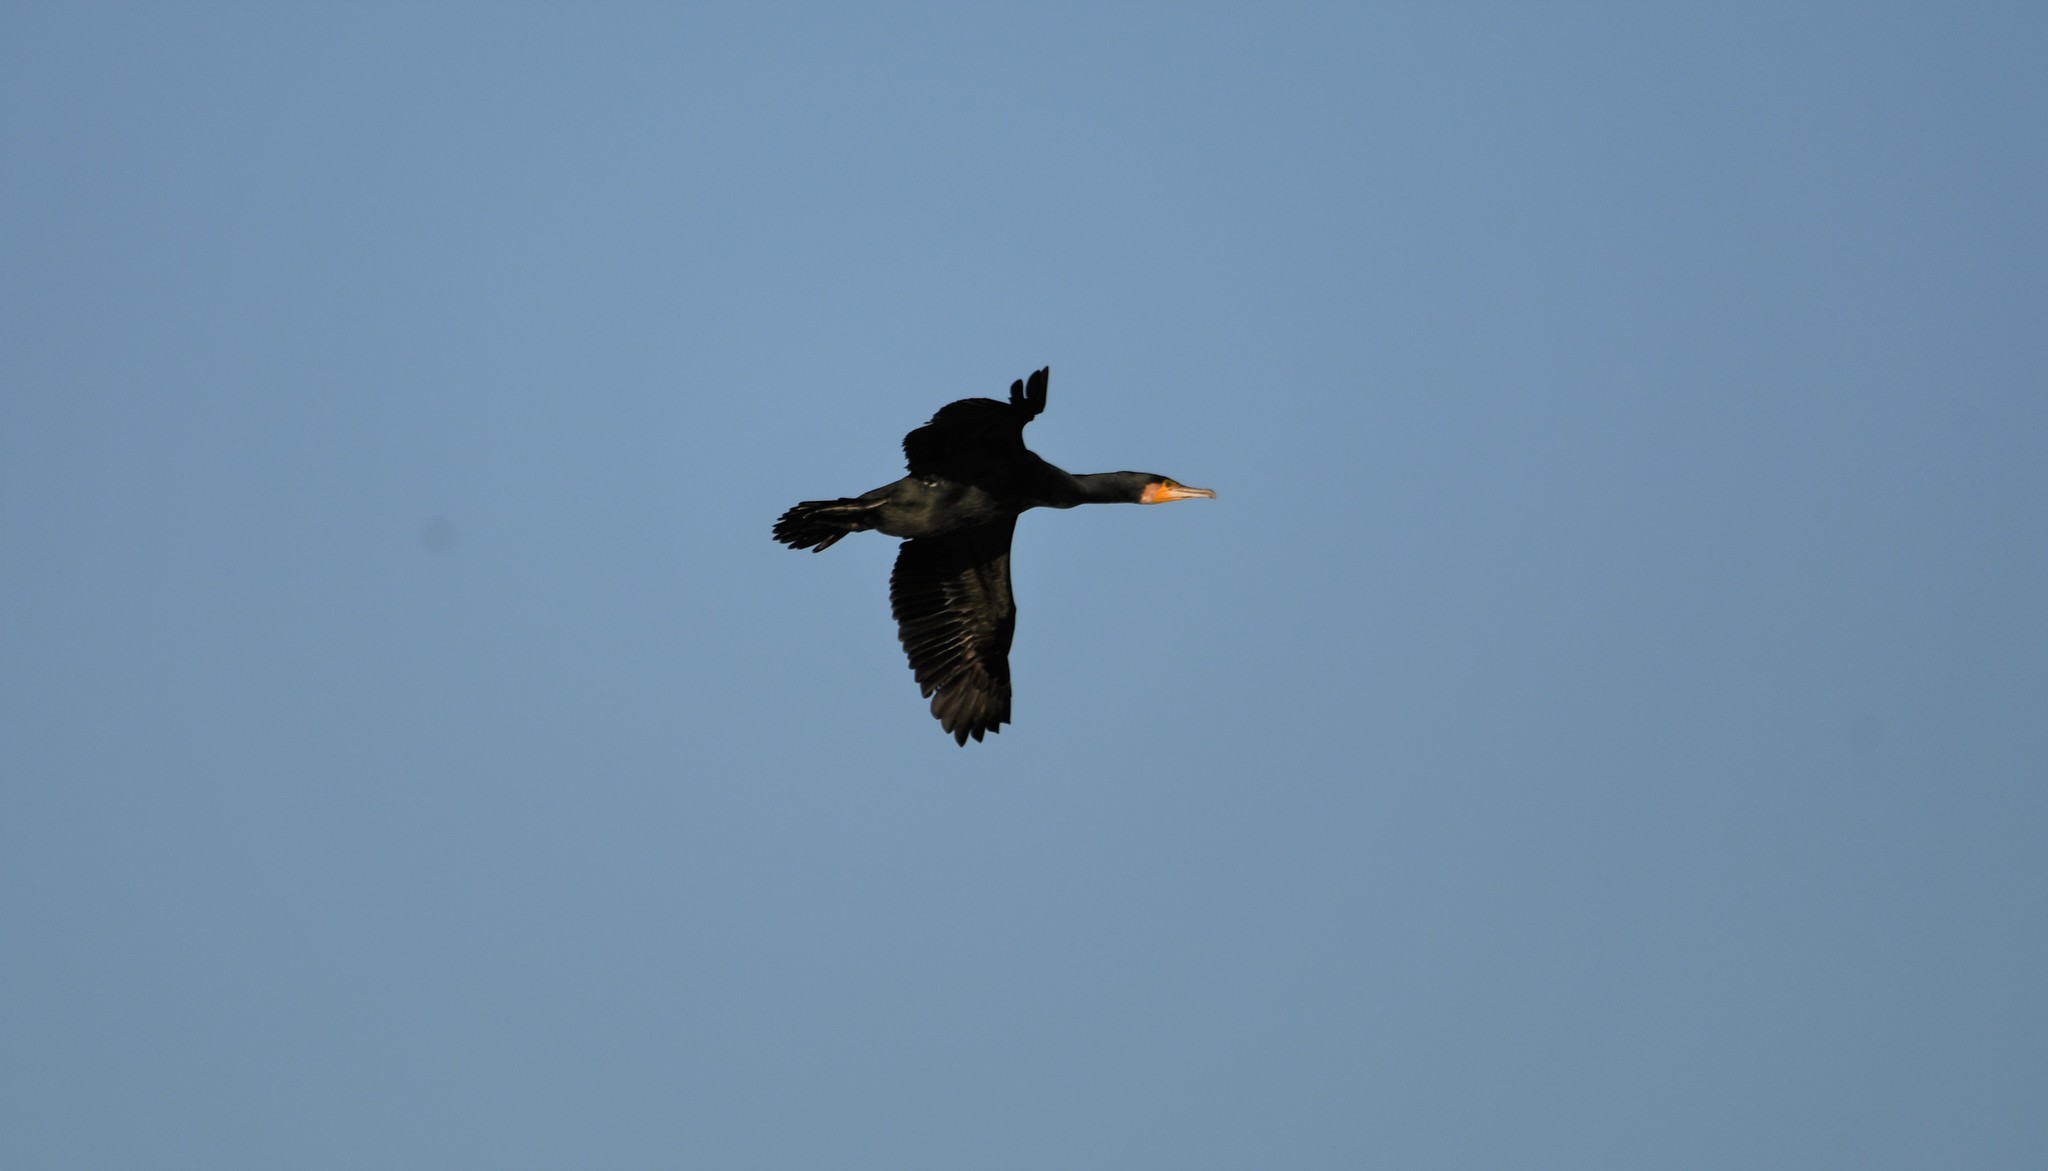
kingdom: Animalia
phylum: Chordata
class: Aves
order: Suliformes
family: Phalacrocoracidae
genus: Phalacrocorax
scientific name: Phalacrocorax carbo
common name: Great cormorant
